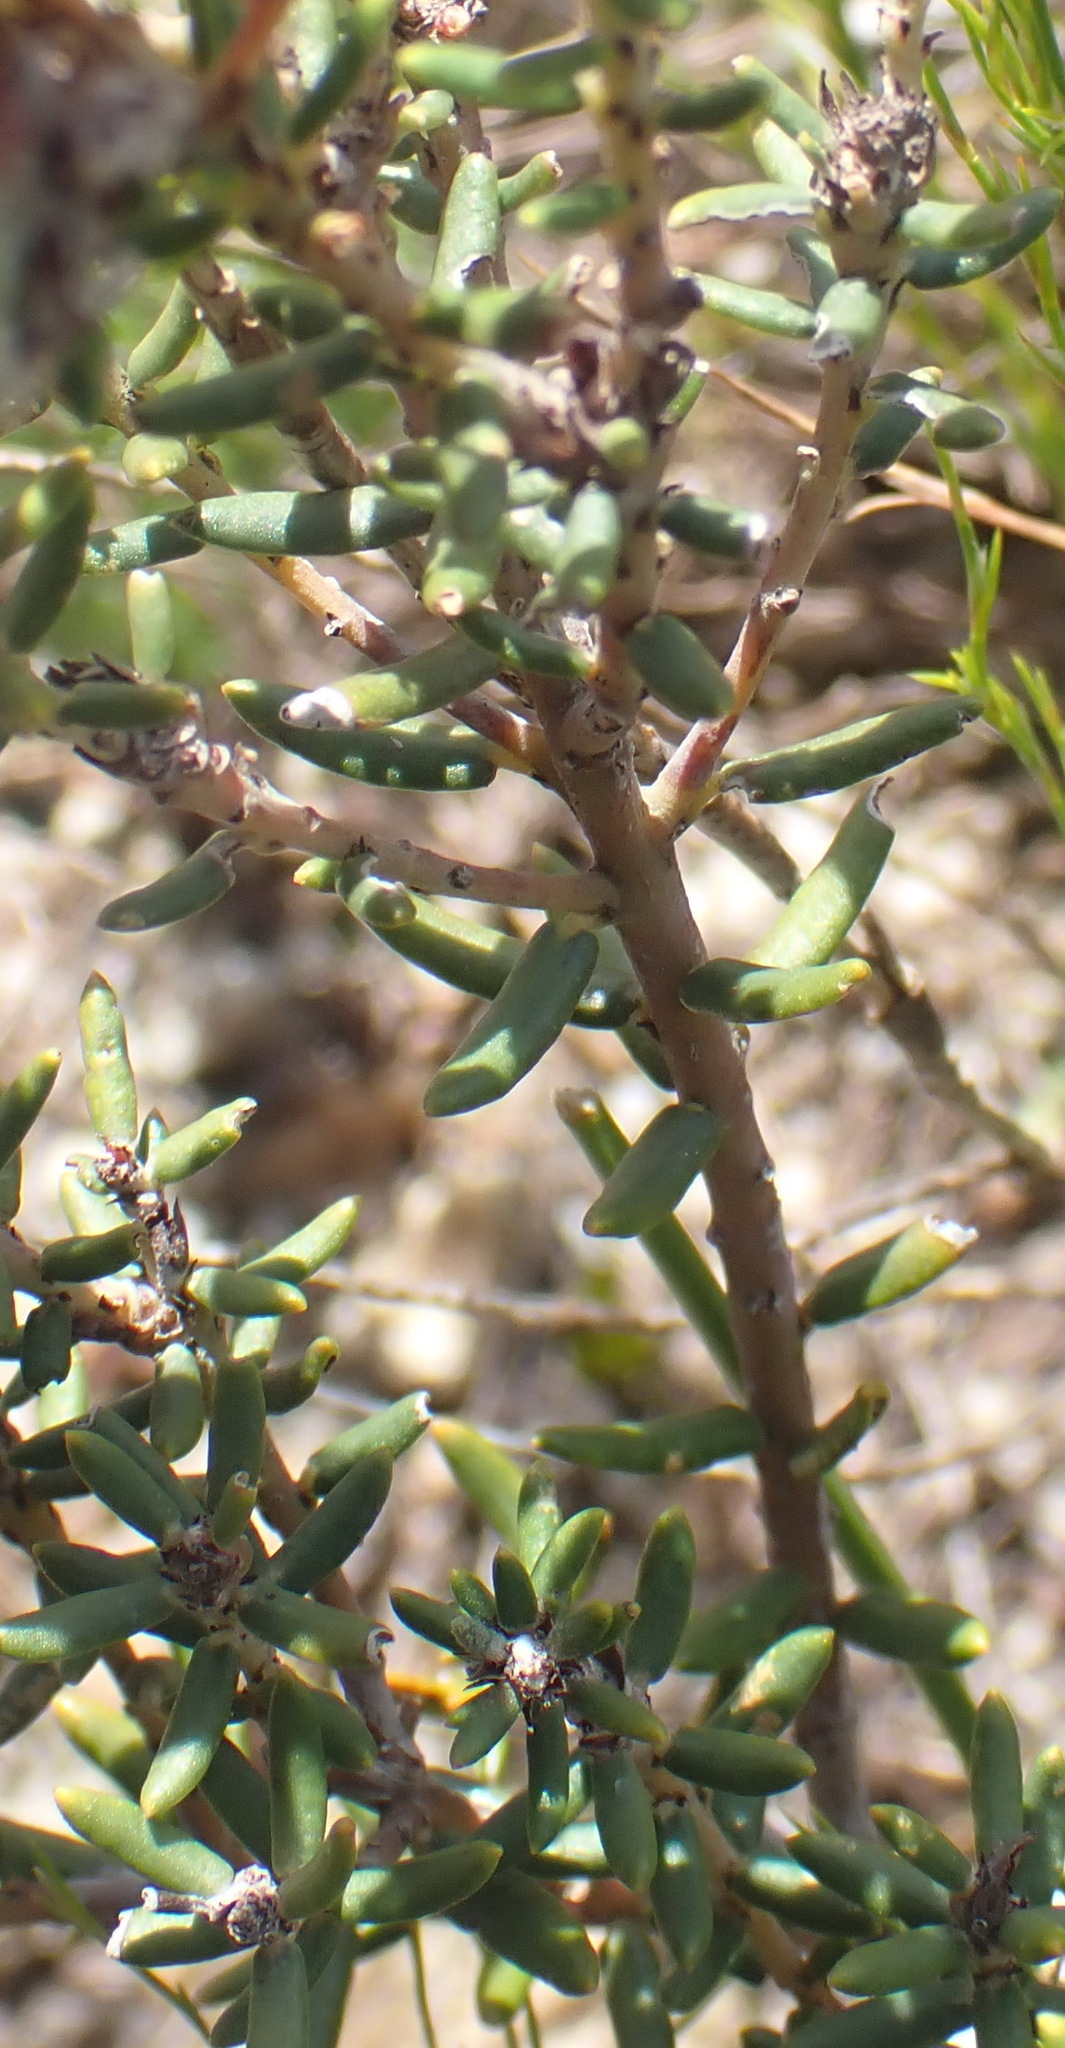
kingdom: Plantae
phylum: Tracheophyta
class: Magnoliopsida
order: Rosales
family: Rhamnaceae
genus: Trichocephalus
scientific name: Trichocephalus stipularis
